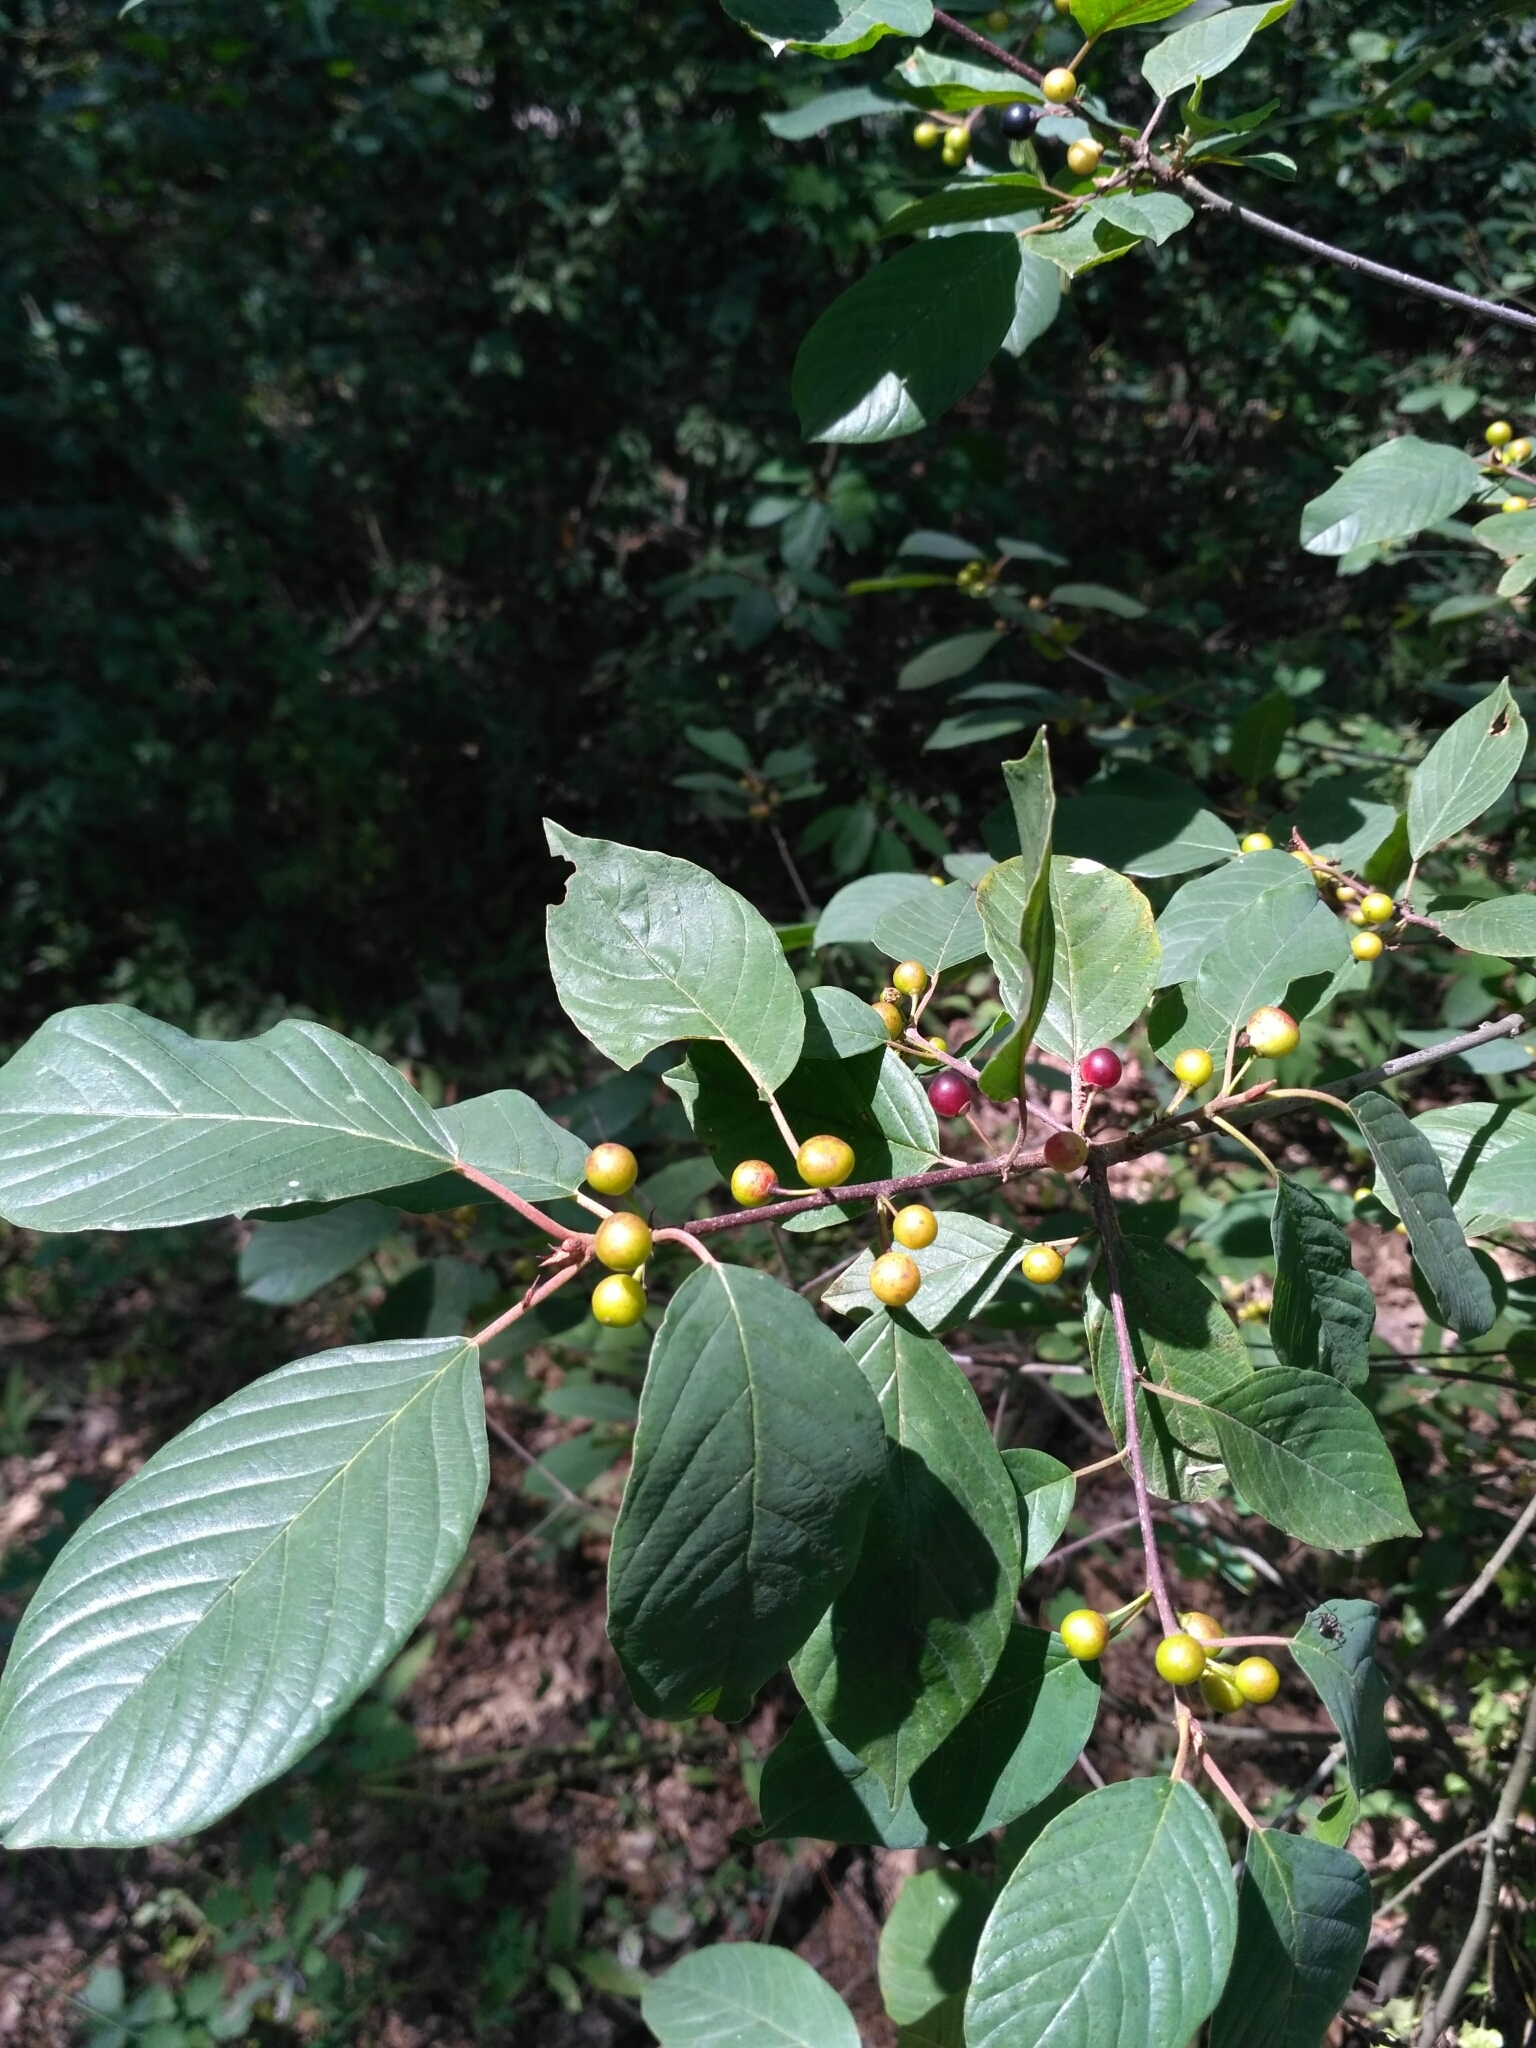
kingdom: Plantae
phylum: Tracheophyta
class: Magnoliopsida
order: Rosales
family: Rhamnaceae
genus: Frangula
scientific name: Frangula alnus
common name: Alder buckthorn
